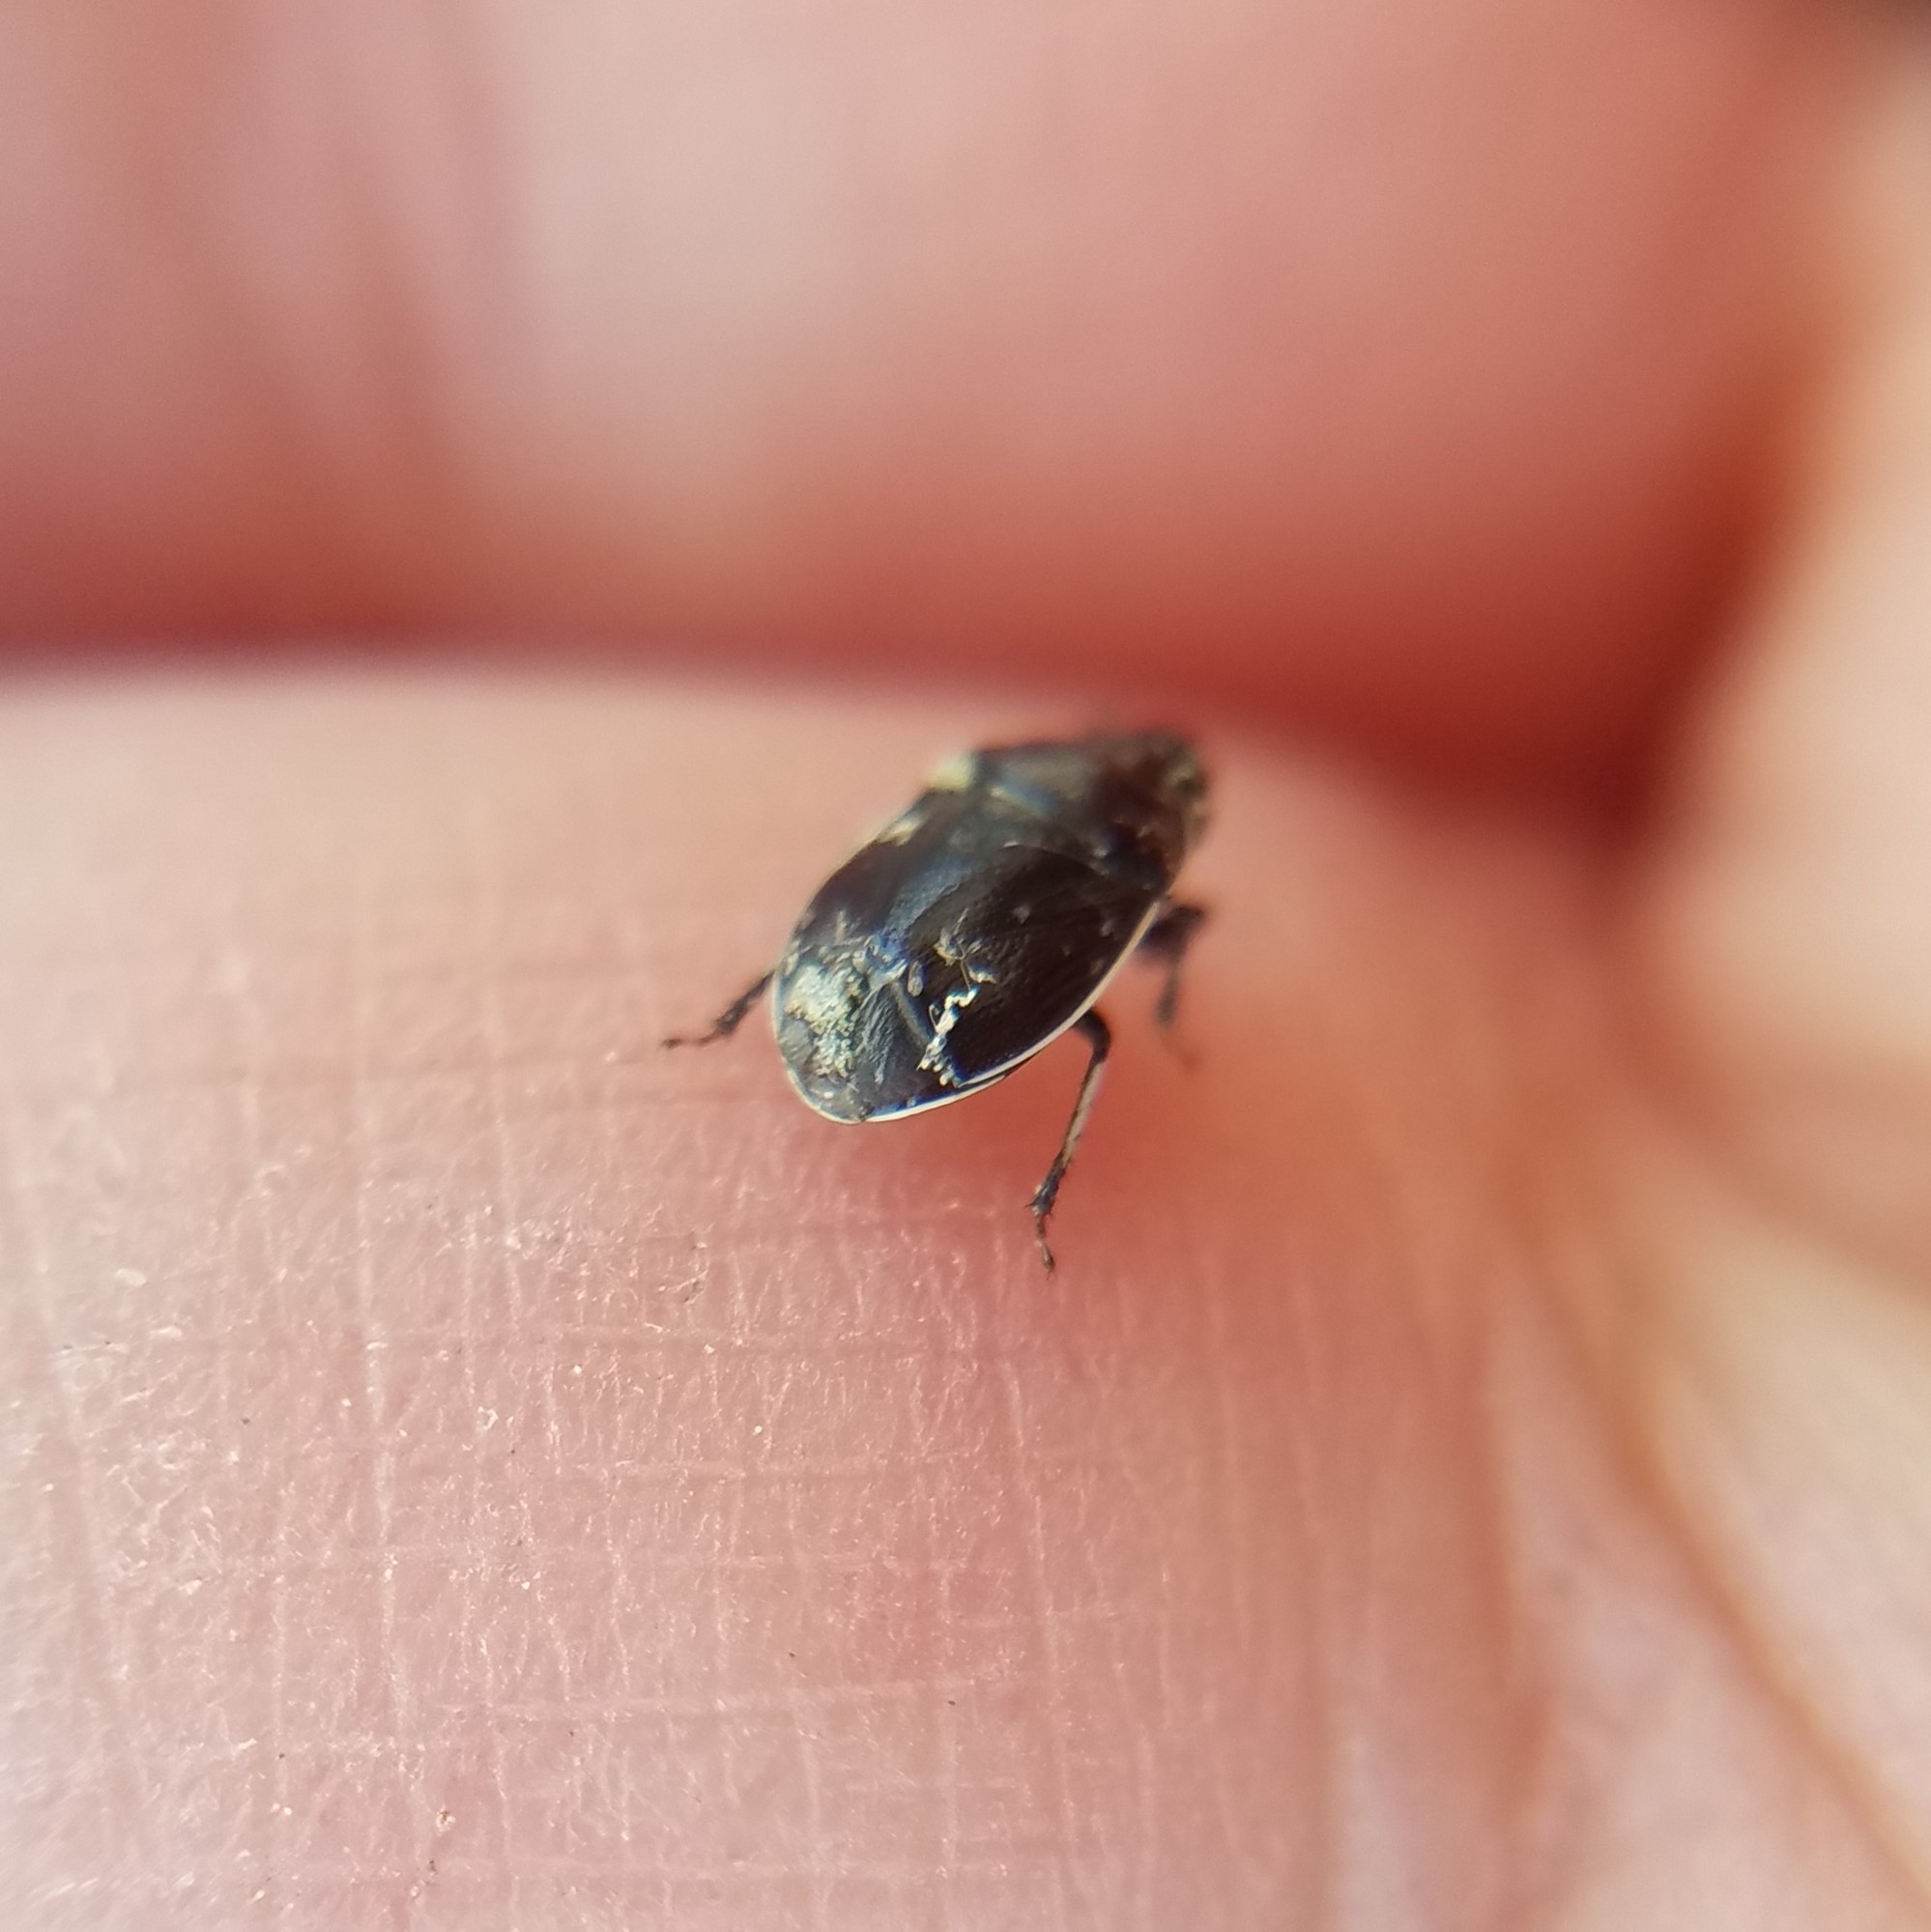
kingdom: Animalia
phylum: Arthropoda
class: Insecta
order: Hemiptera
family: Cydnidae
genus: Sehirus
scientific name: Sehirus cinctus
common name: White-margined burrower bug
